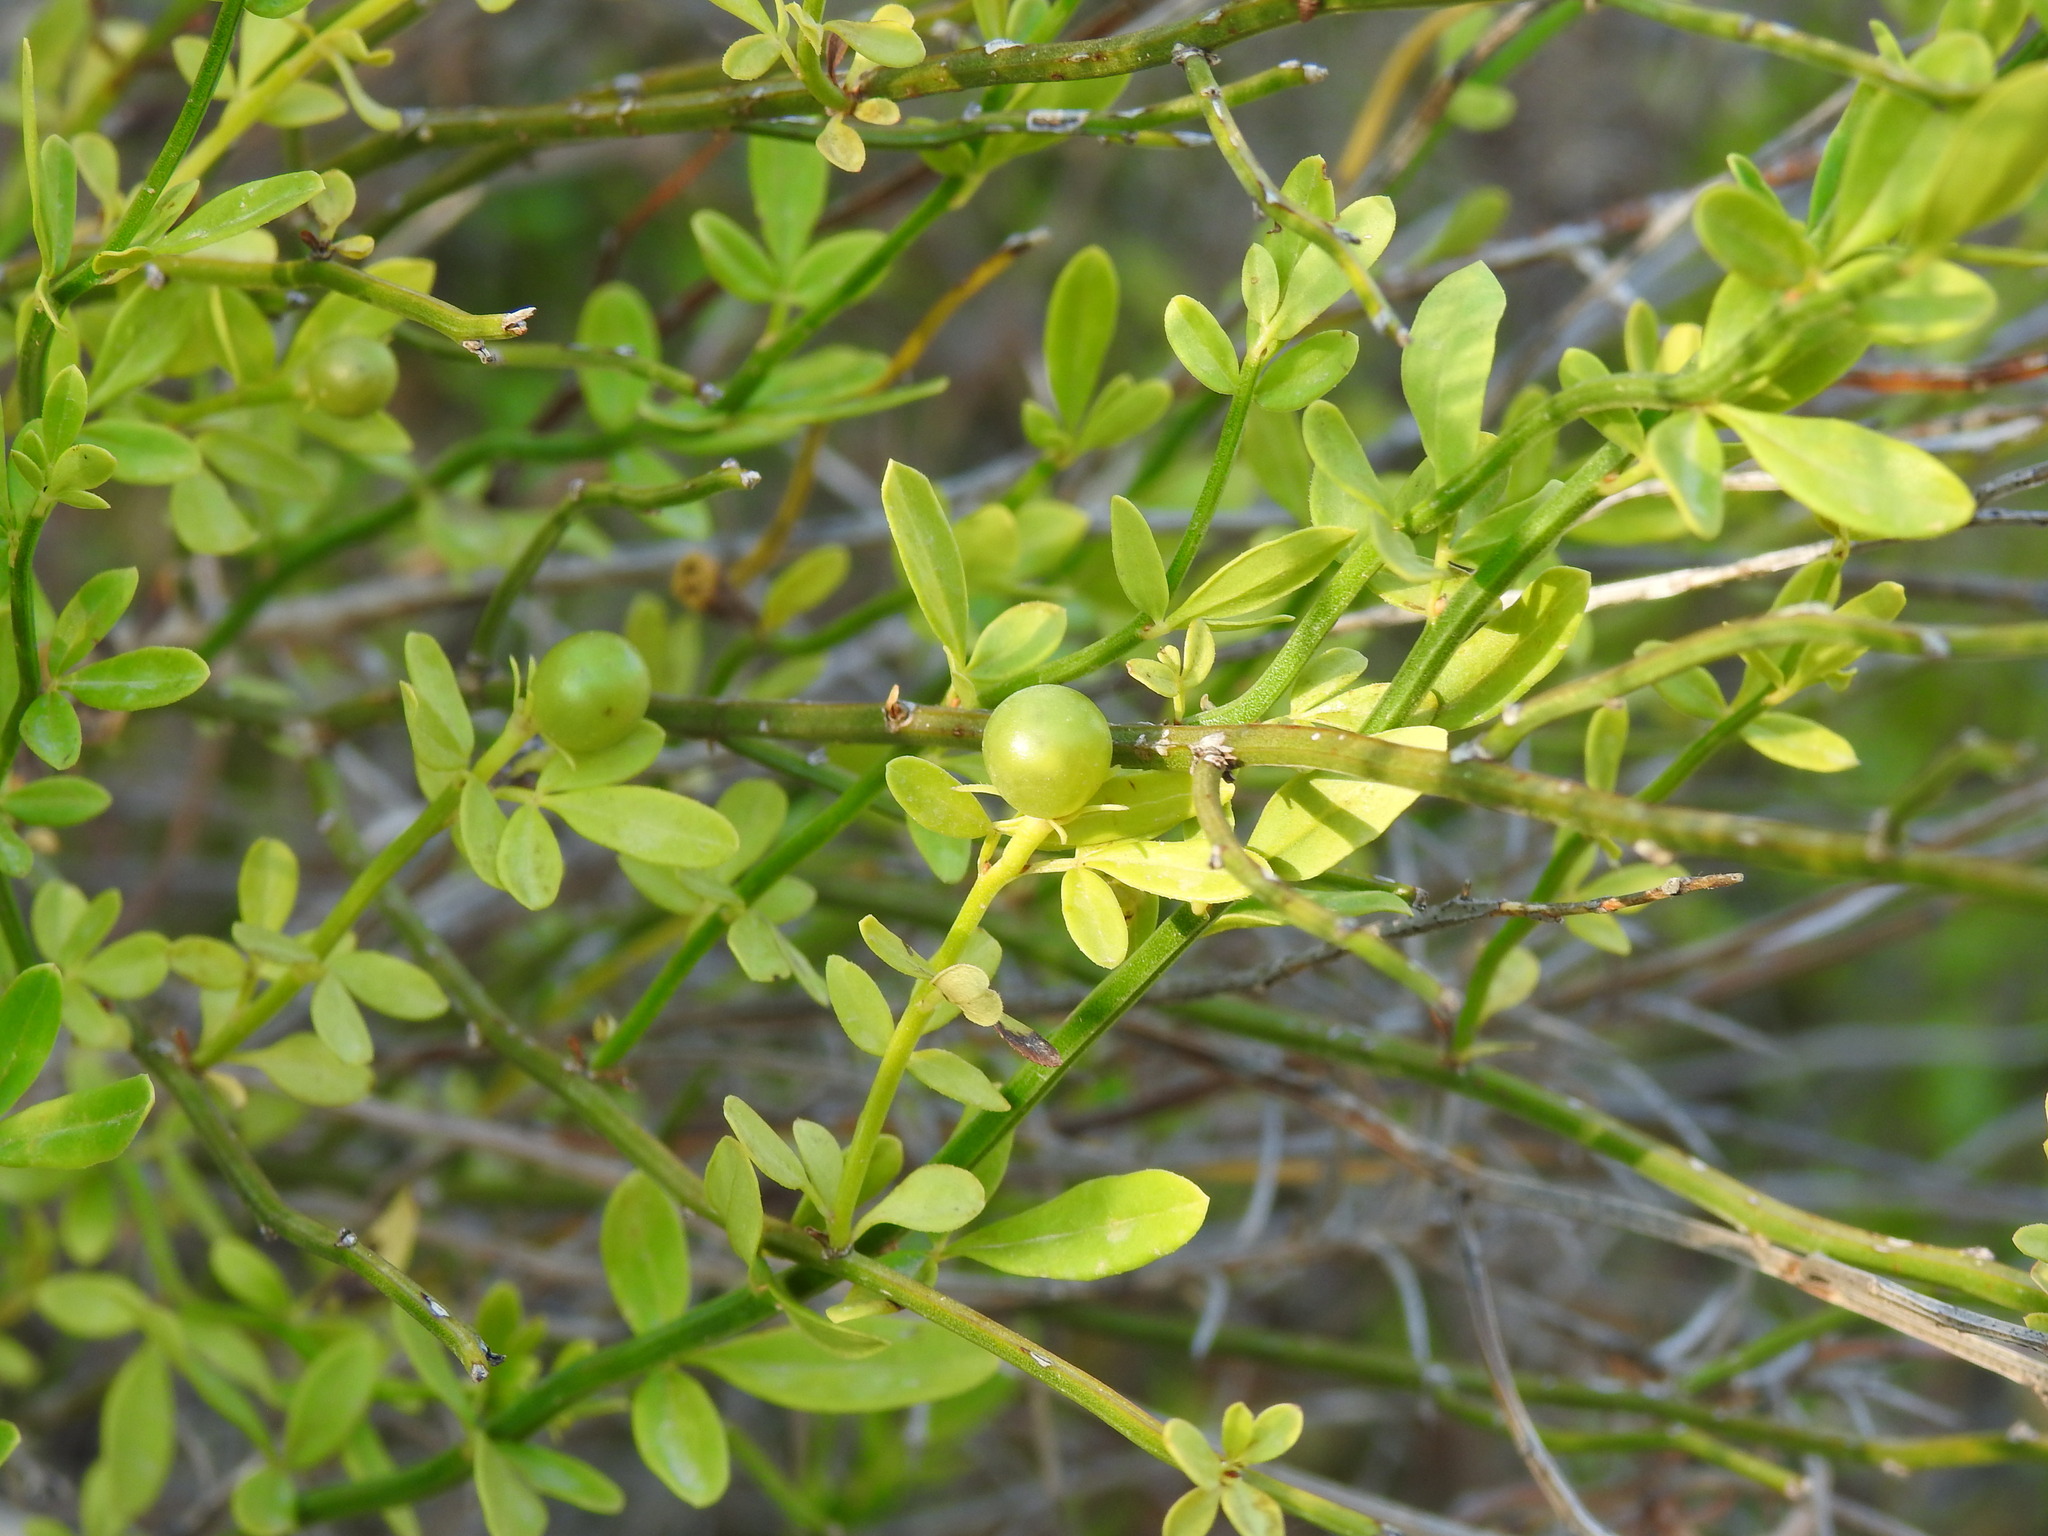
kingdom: Plantae
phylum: Tracheophyta
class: Magnoliopsida
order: Lamiales
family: Oleaceae
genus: Chrysojasminum
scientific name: Chrysojasminum fruticans
